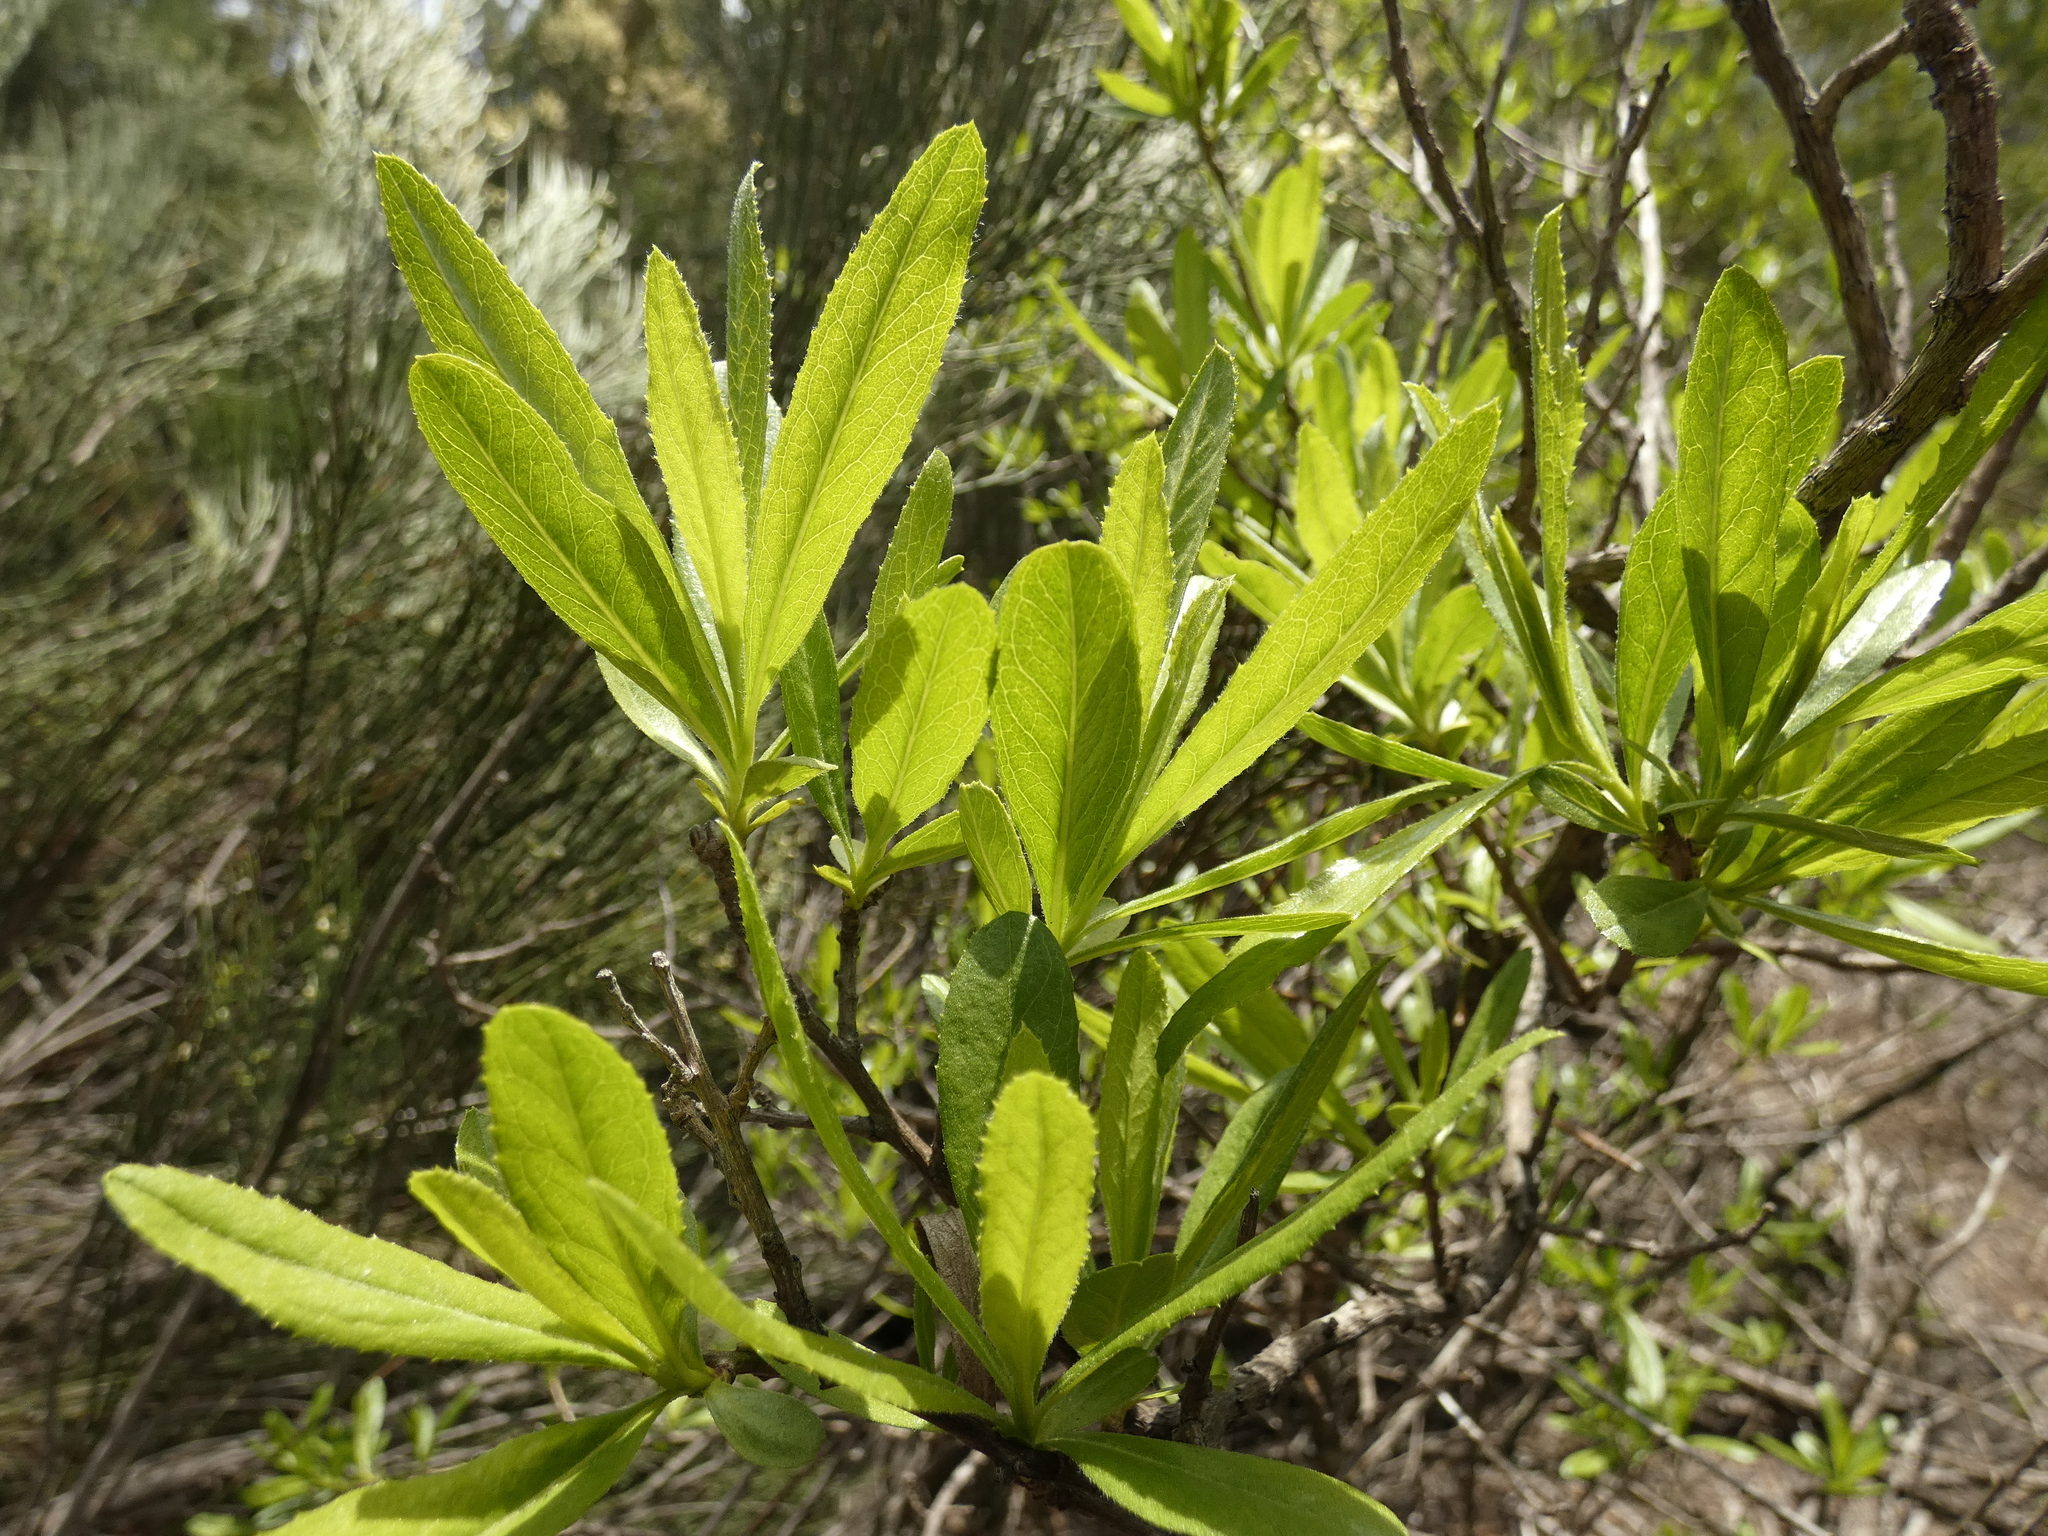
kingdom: Plantae
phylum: Tracheophyta
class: Magnoliopsida
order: Asterales
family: Asteraceae
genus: Gochnatia
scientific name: Gochnatia foliolosa
